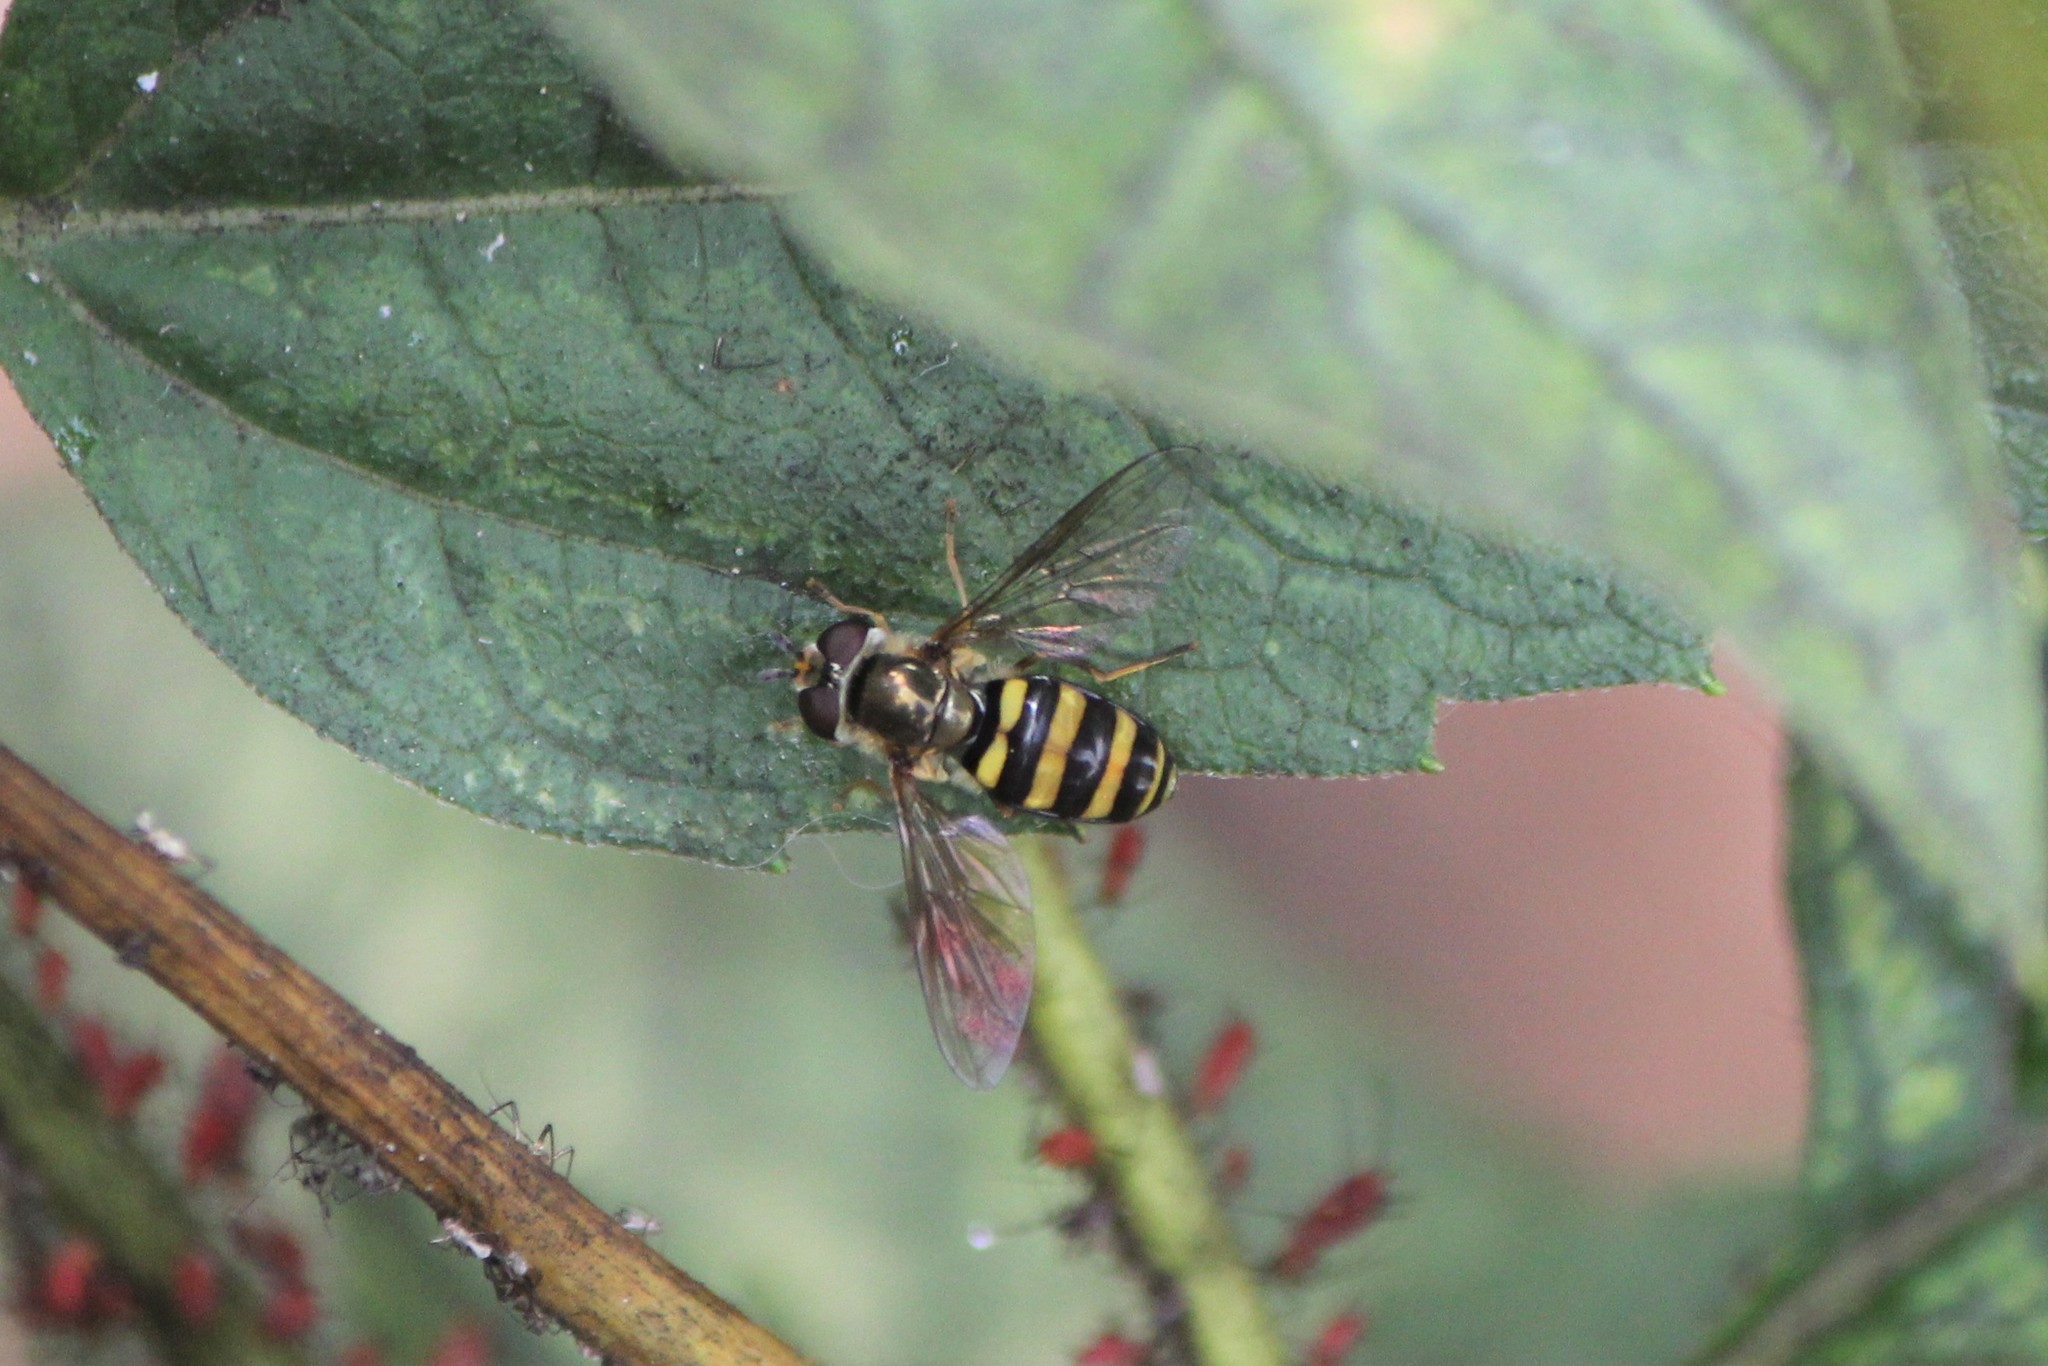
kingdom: Animalia
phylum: Arthropoda
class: Insecta
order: Diptera
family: Syrphidae
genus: Eupeodes
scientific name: Eupeodes
